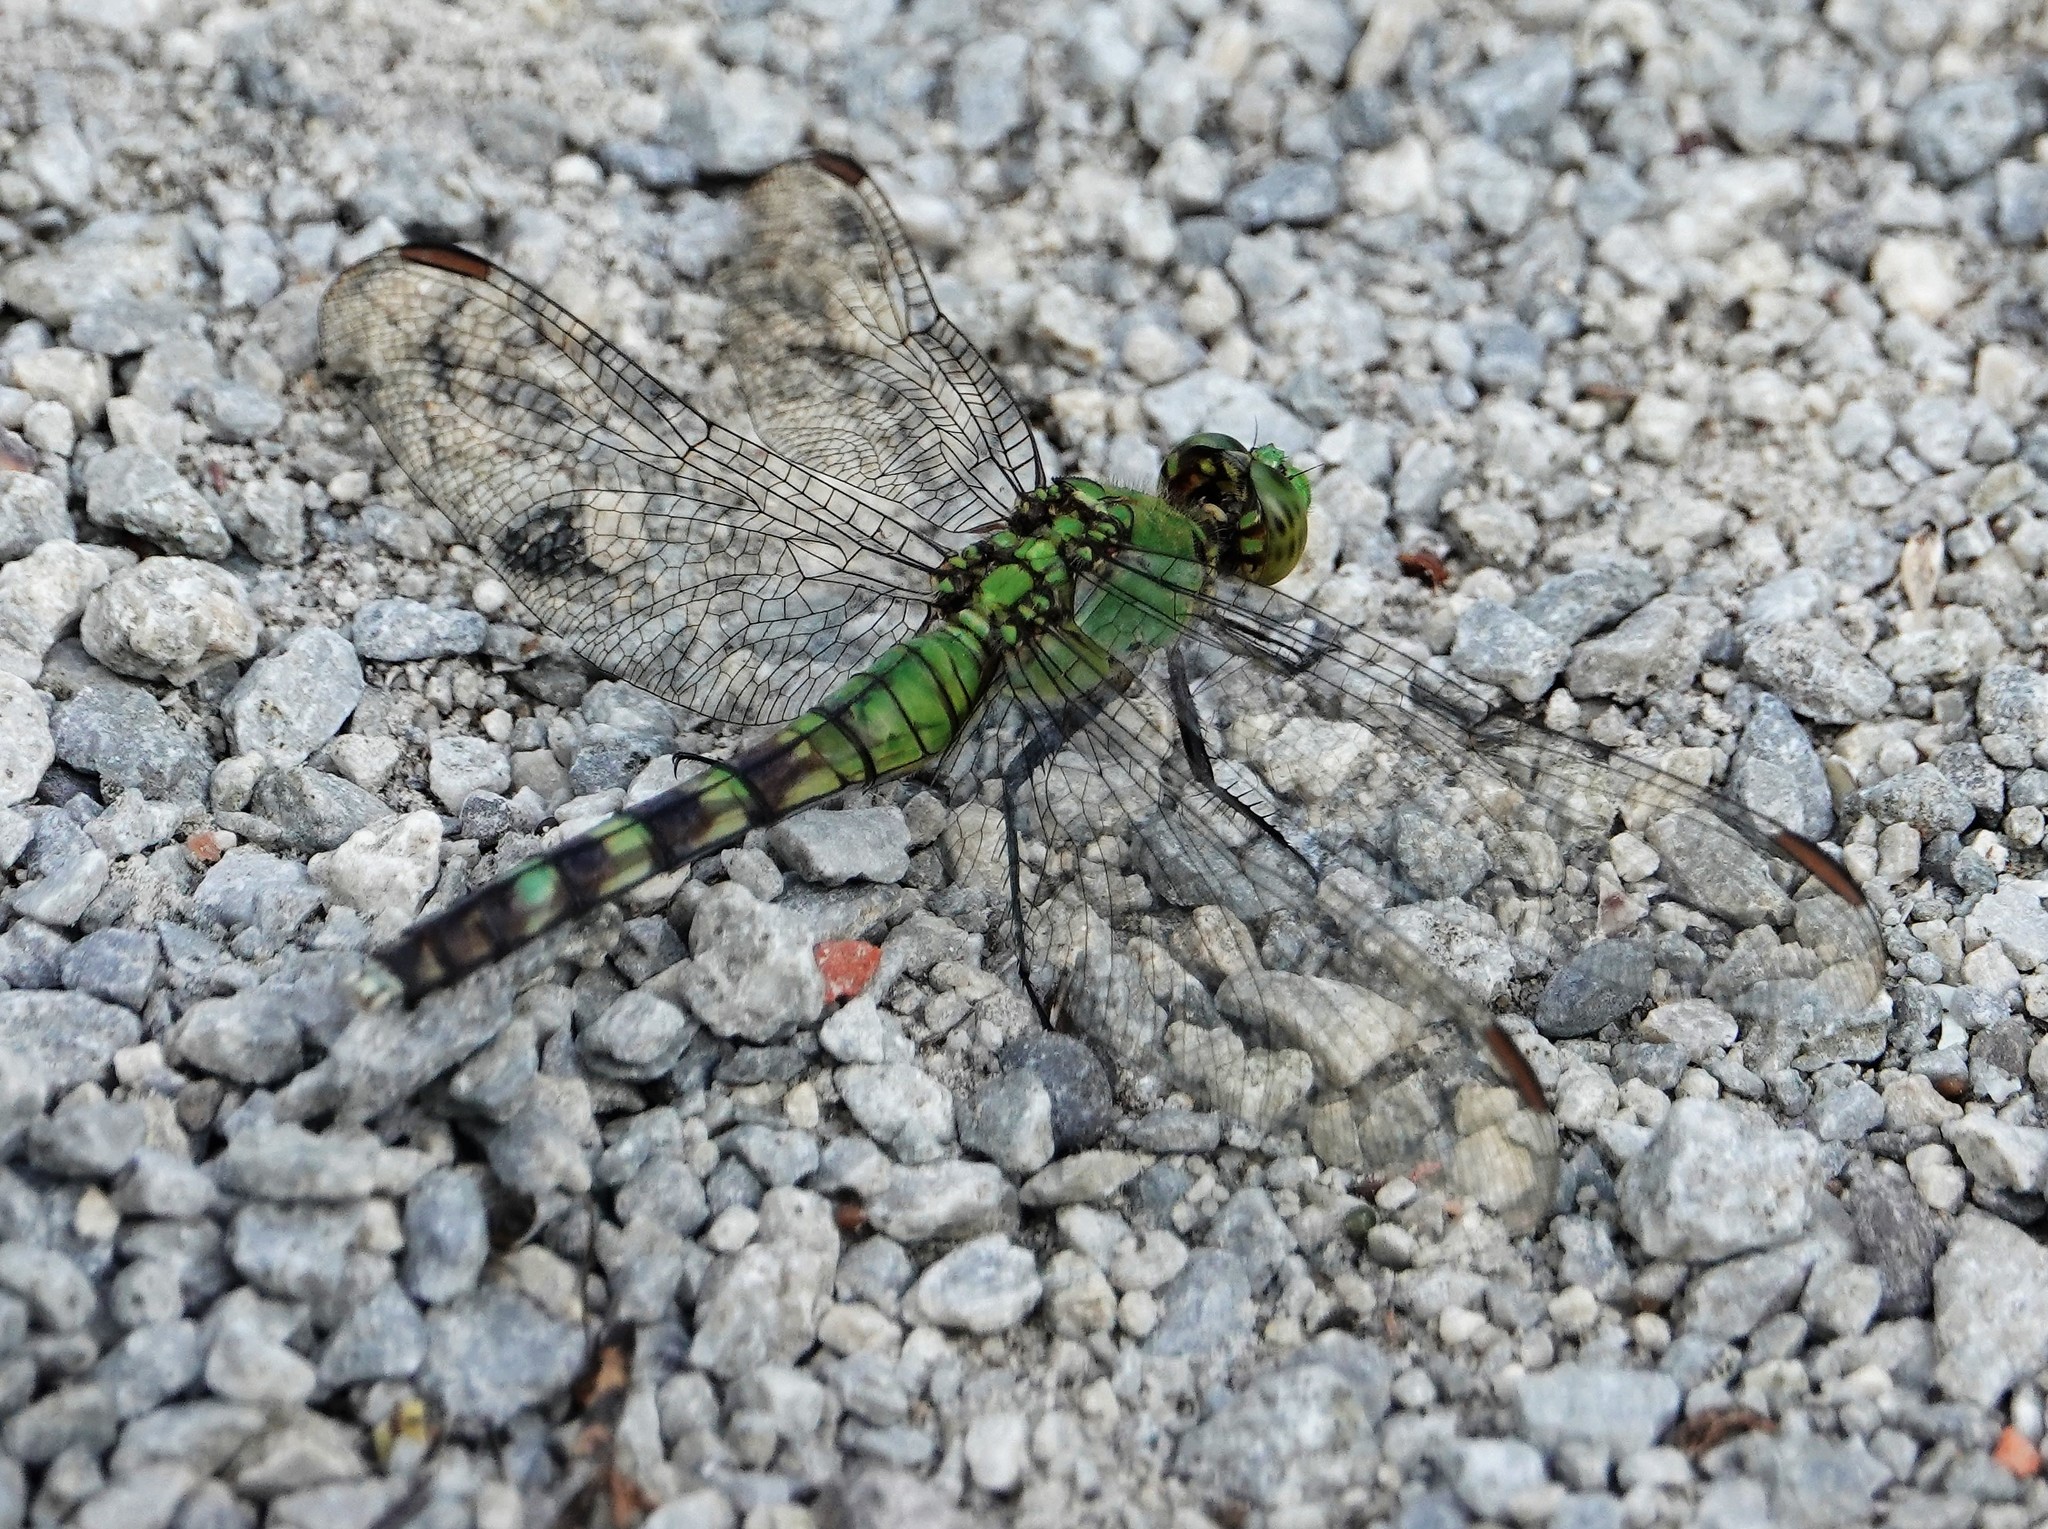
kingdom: Animalia
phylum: Arthropoda
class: Insecta
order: Odonata
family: Libellulidae
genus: Erythemis
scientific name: Erythemis simplicicollis
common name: Eastern pondhawk
